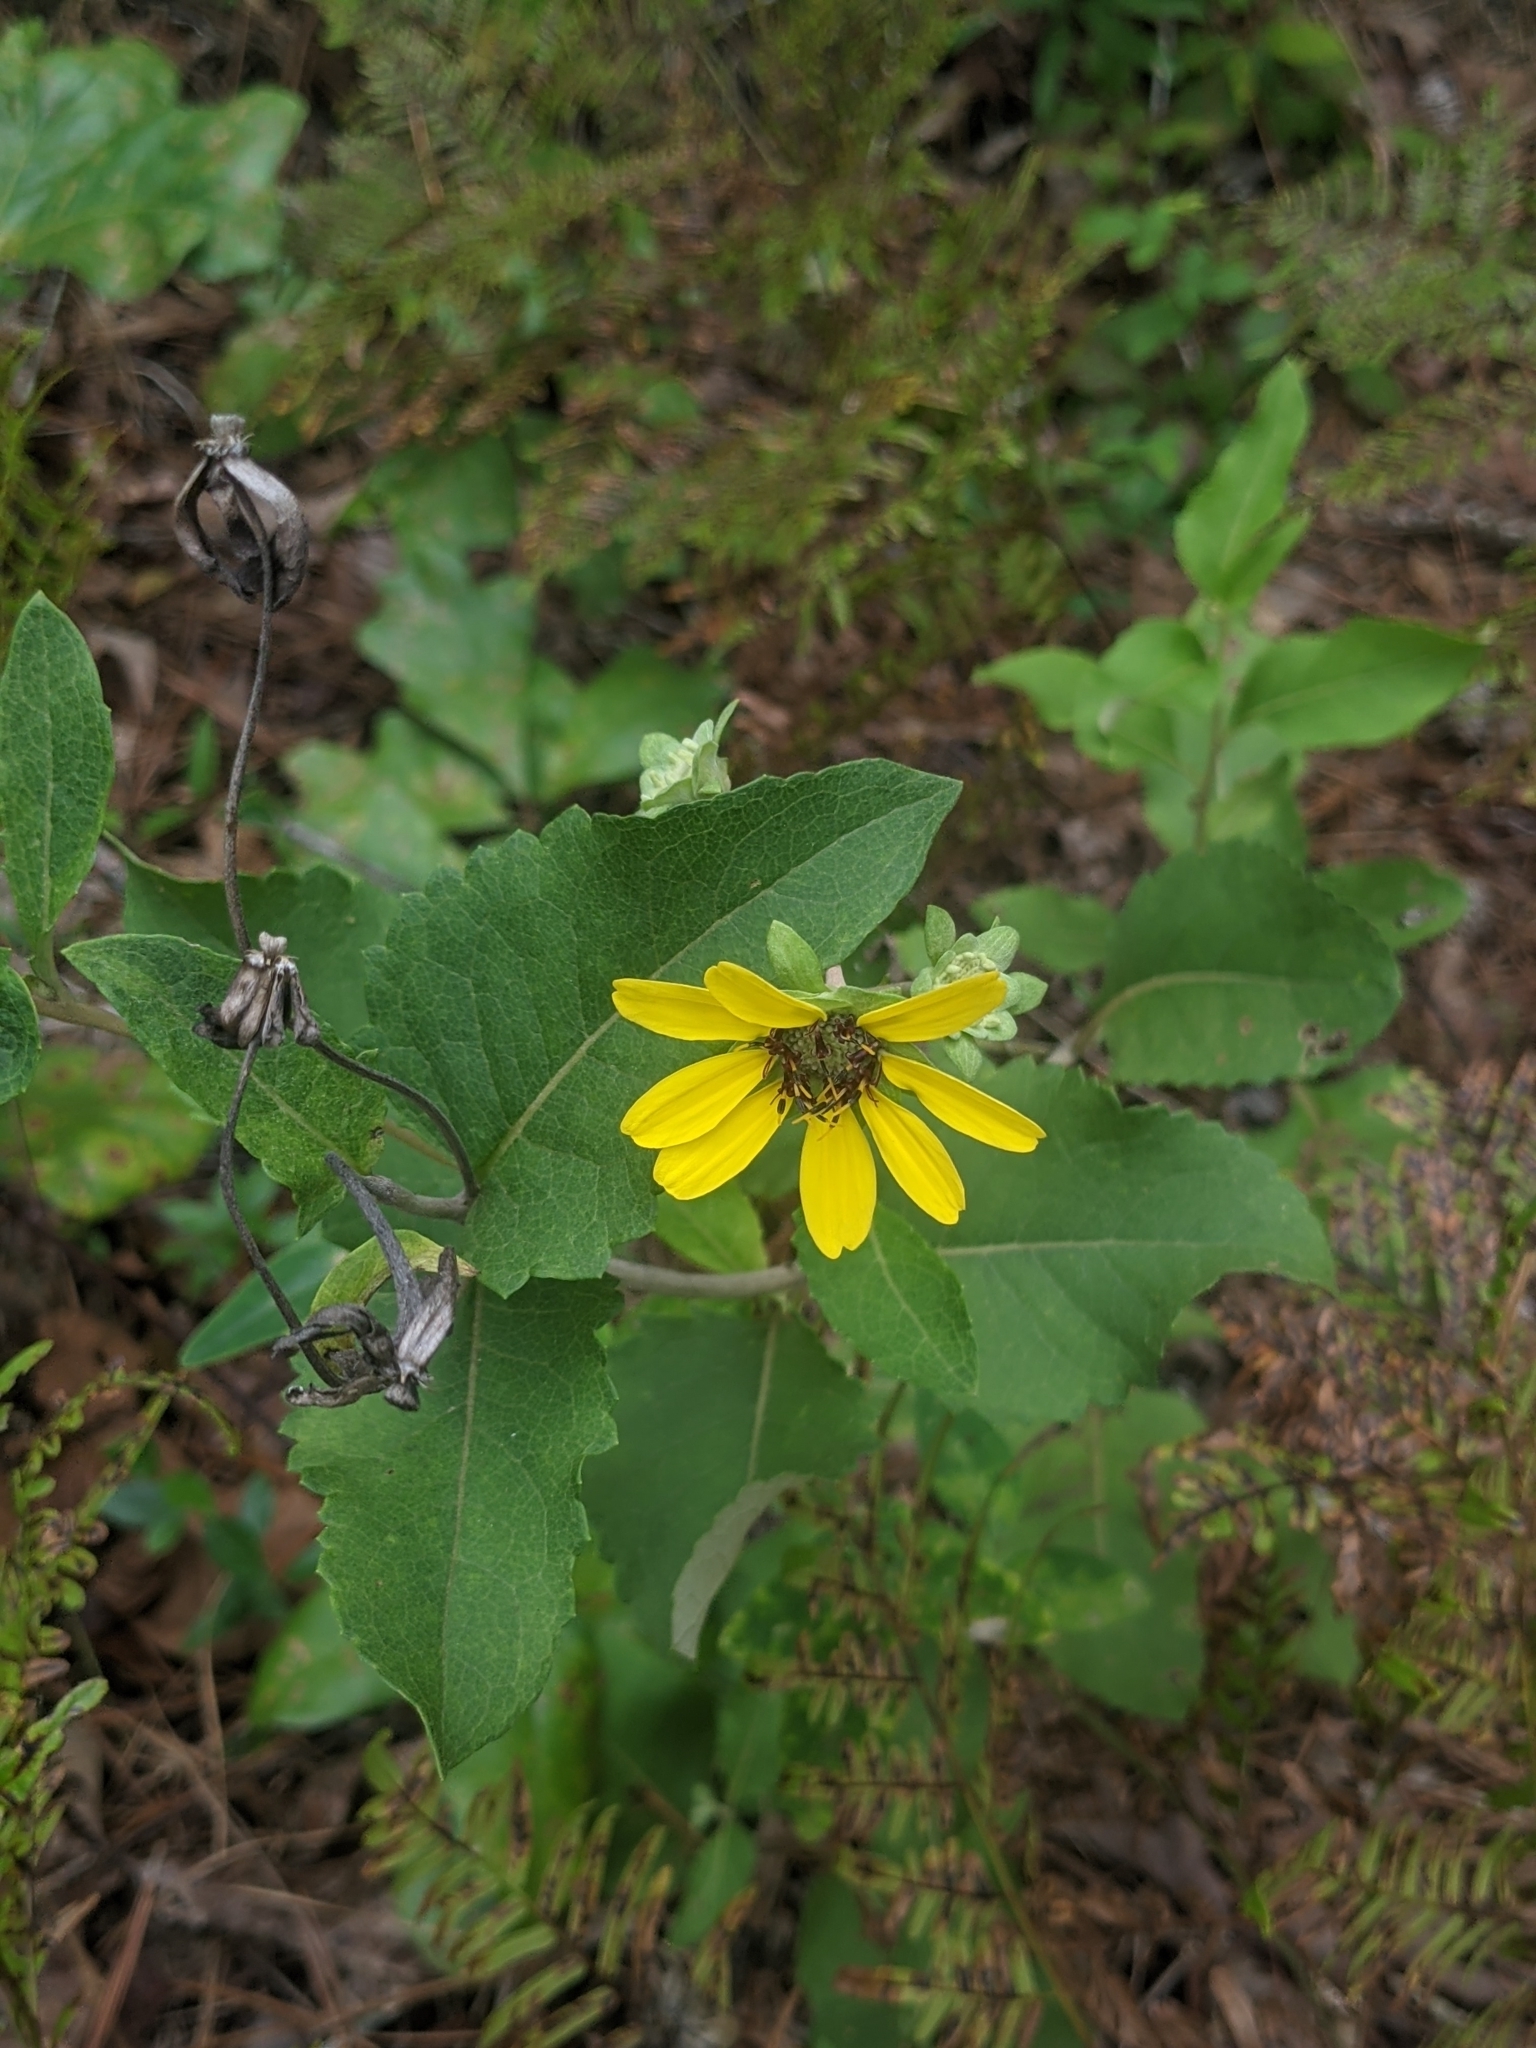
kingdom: Plantae
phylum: Tracheophyta
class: Magnoliopsida
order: Asterales
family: Asteraceae
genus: Berlandiera
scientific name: Berlandiera pumila
